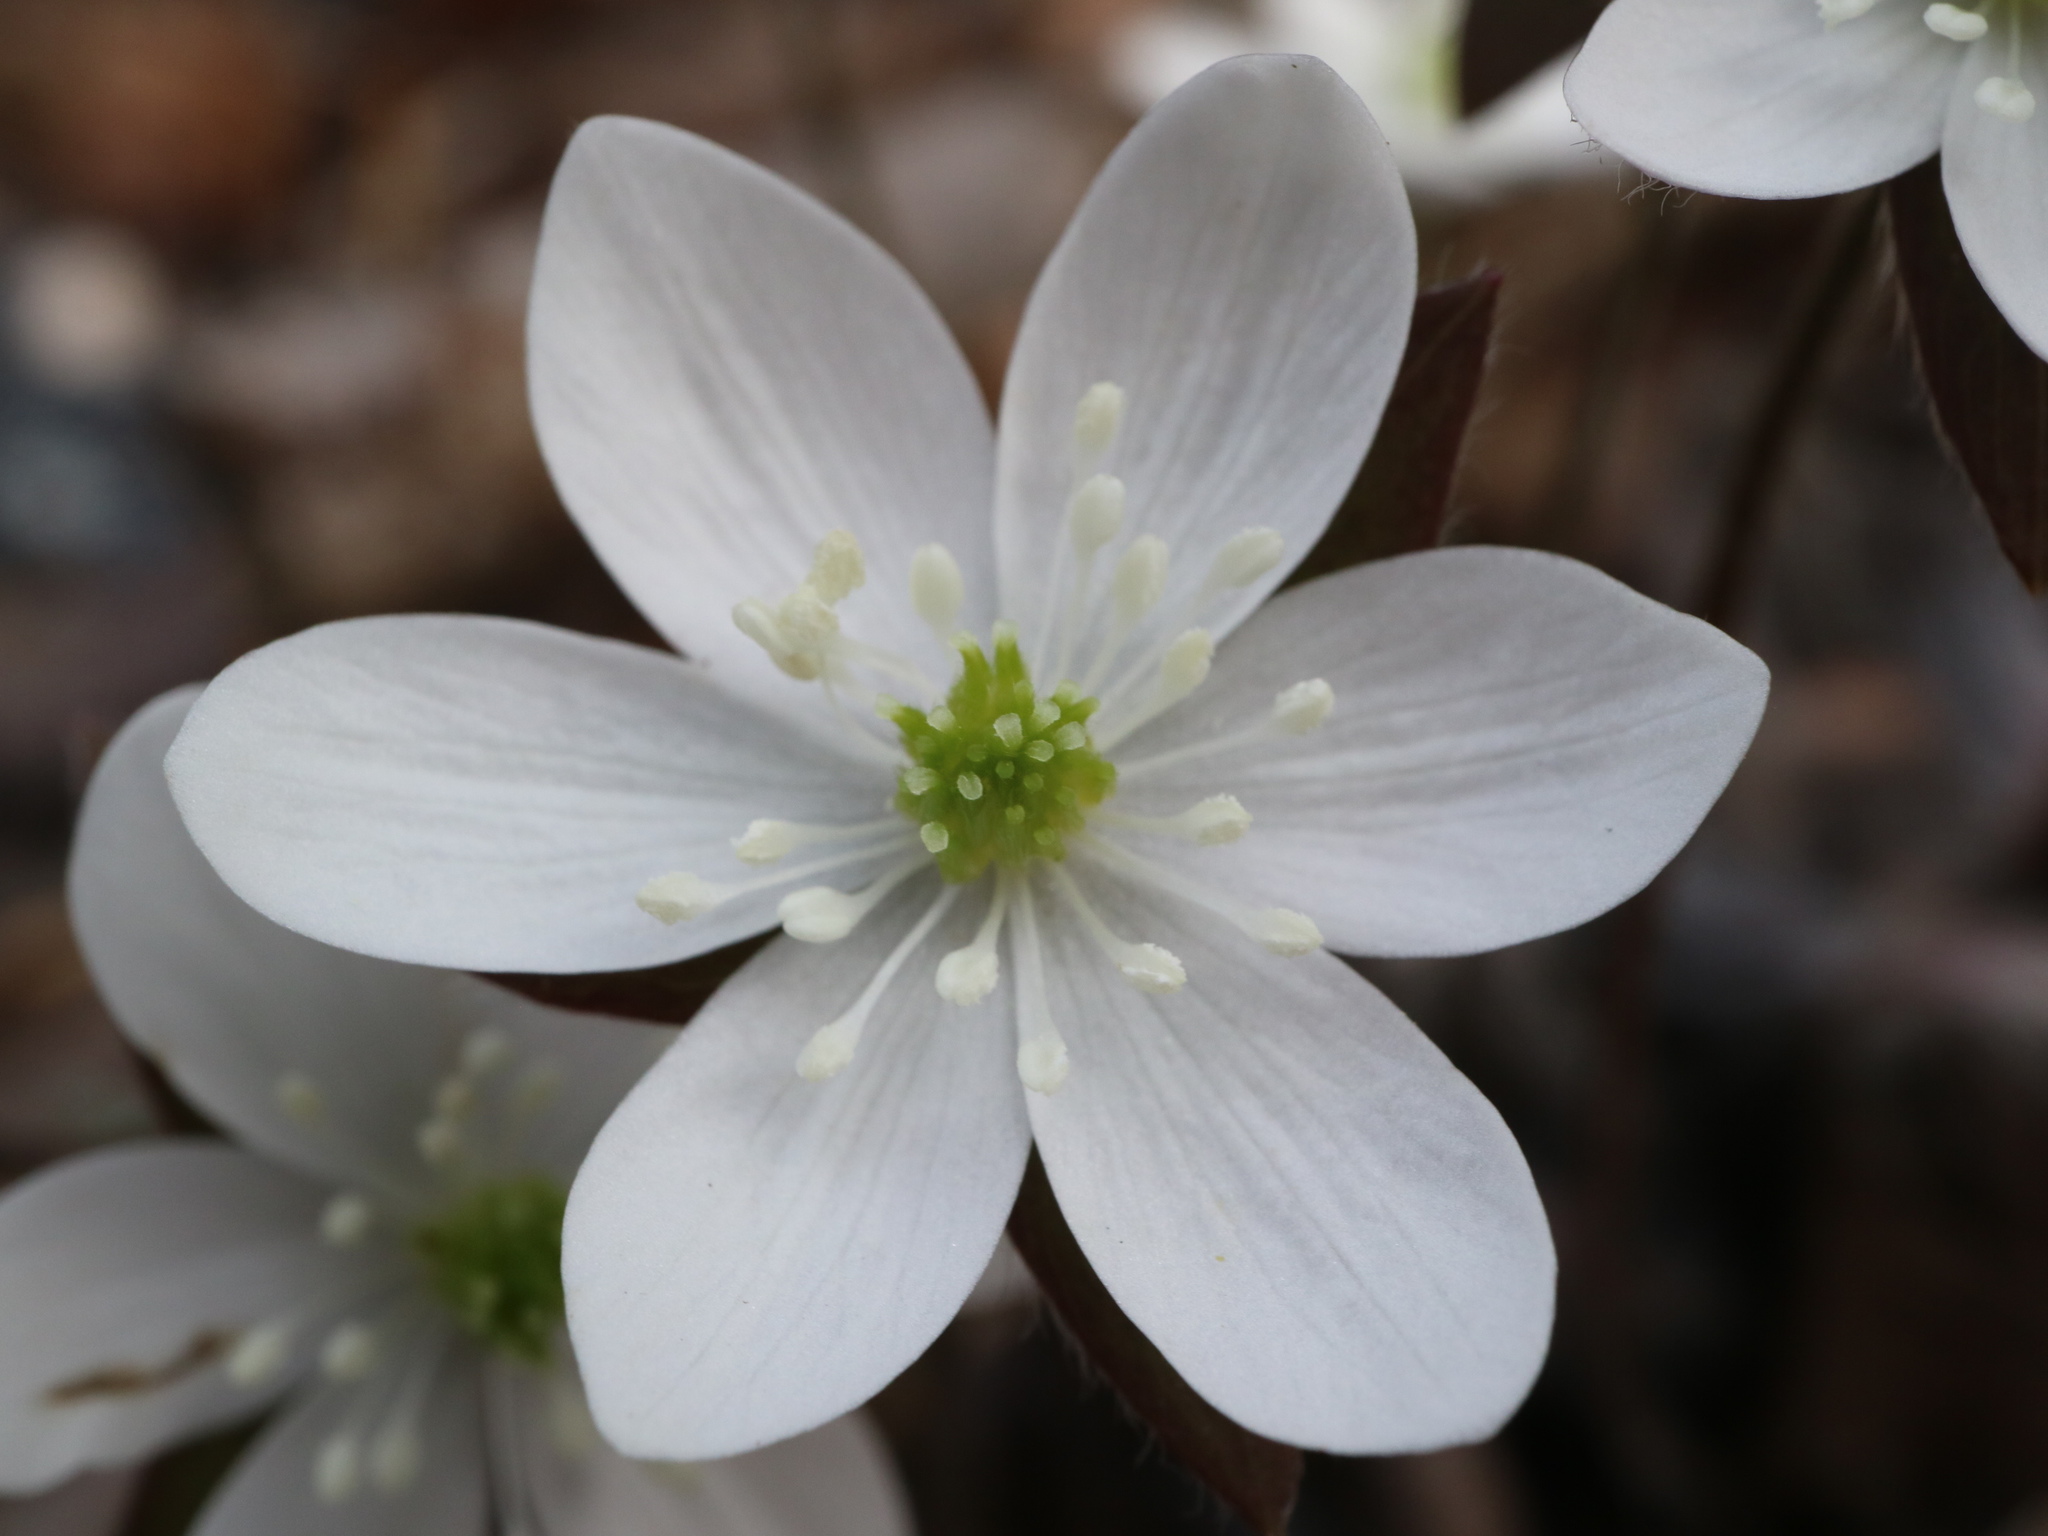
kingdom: Plantae
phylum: Tracheophyta
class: Magnoliopsida
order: Ranunculales
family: Ranunculaceae
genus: Hepatica
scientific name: Hepatica acutiloba
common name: Sharp-lobed hepatica
